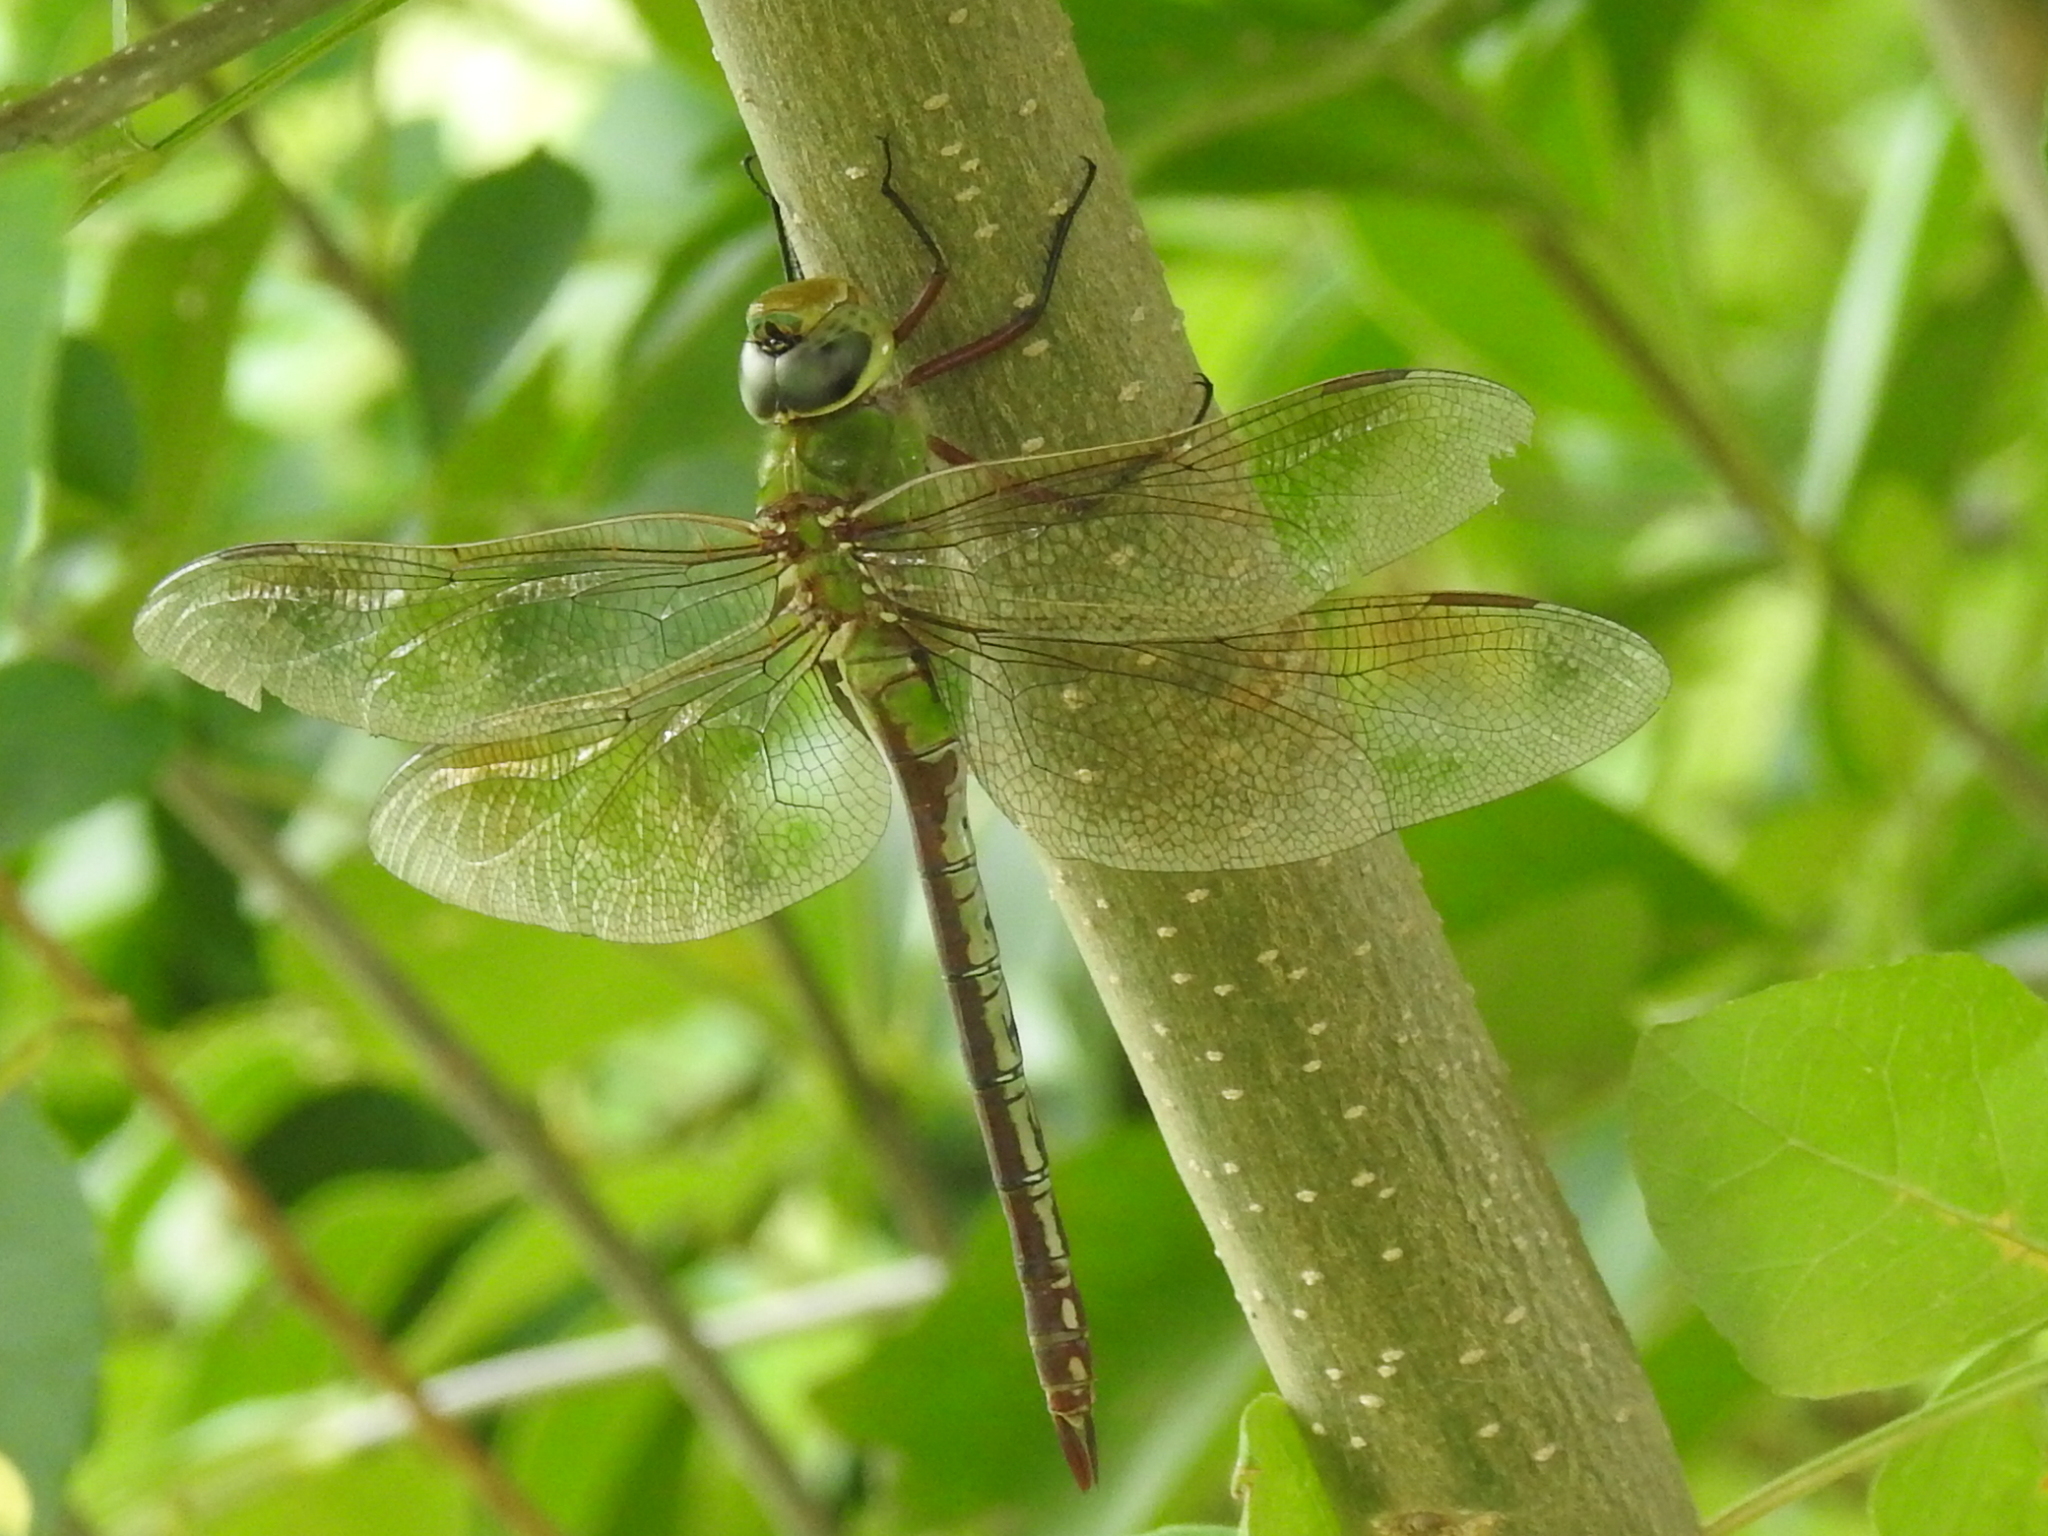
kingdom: Animalia
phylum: Arthropoda
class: Insecta
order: Odonata
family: Aeshnidae
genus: Anax
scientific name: Anax junius
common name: Common green darner
